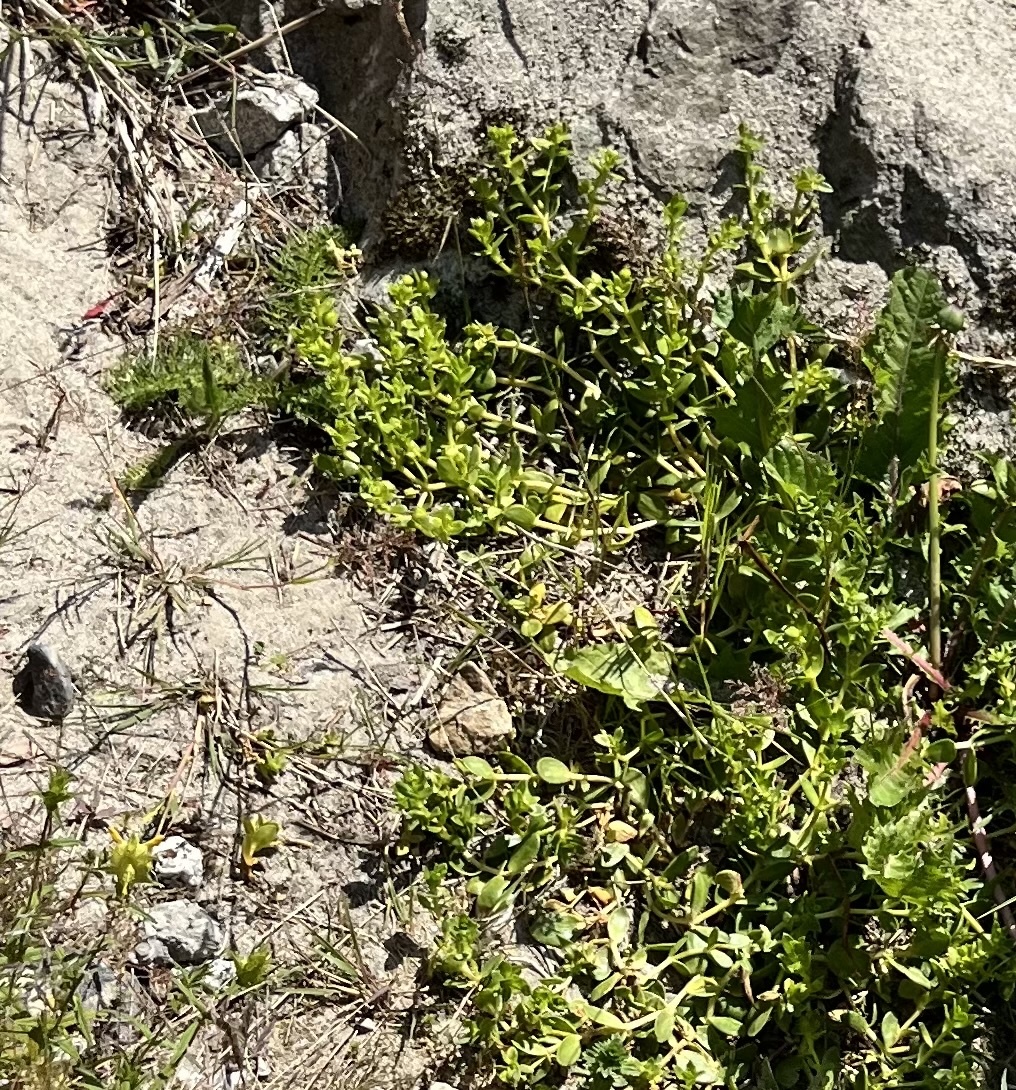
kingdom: Plantae
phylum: Tracheophyta
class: Magnoliopsida
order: Caryophyllales
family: Caryophyllaceae
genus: Honckenya
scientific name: Honckenya peploides
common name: Sea sandwort
